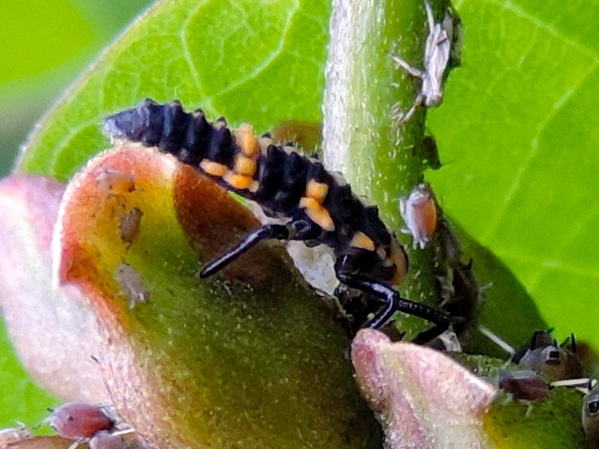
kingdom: Animalia
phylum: Arthropoda
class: Insecta
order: Coleoptera
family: Coccinellidae
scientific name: Coccinellidae
